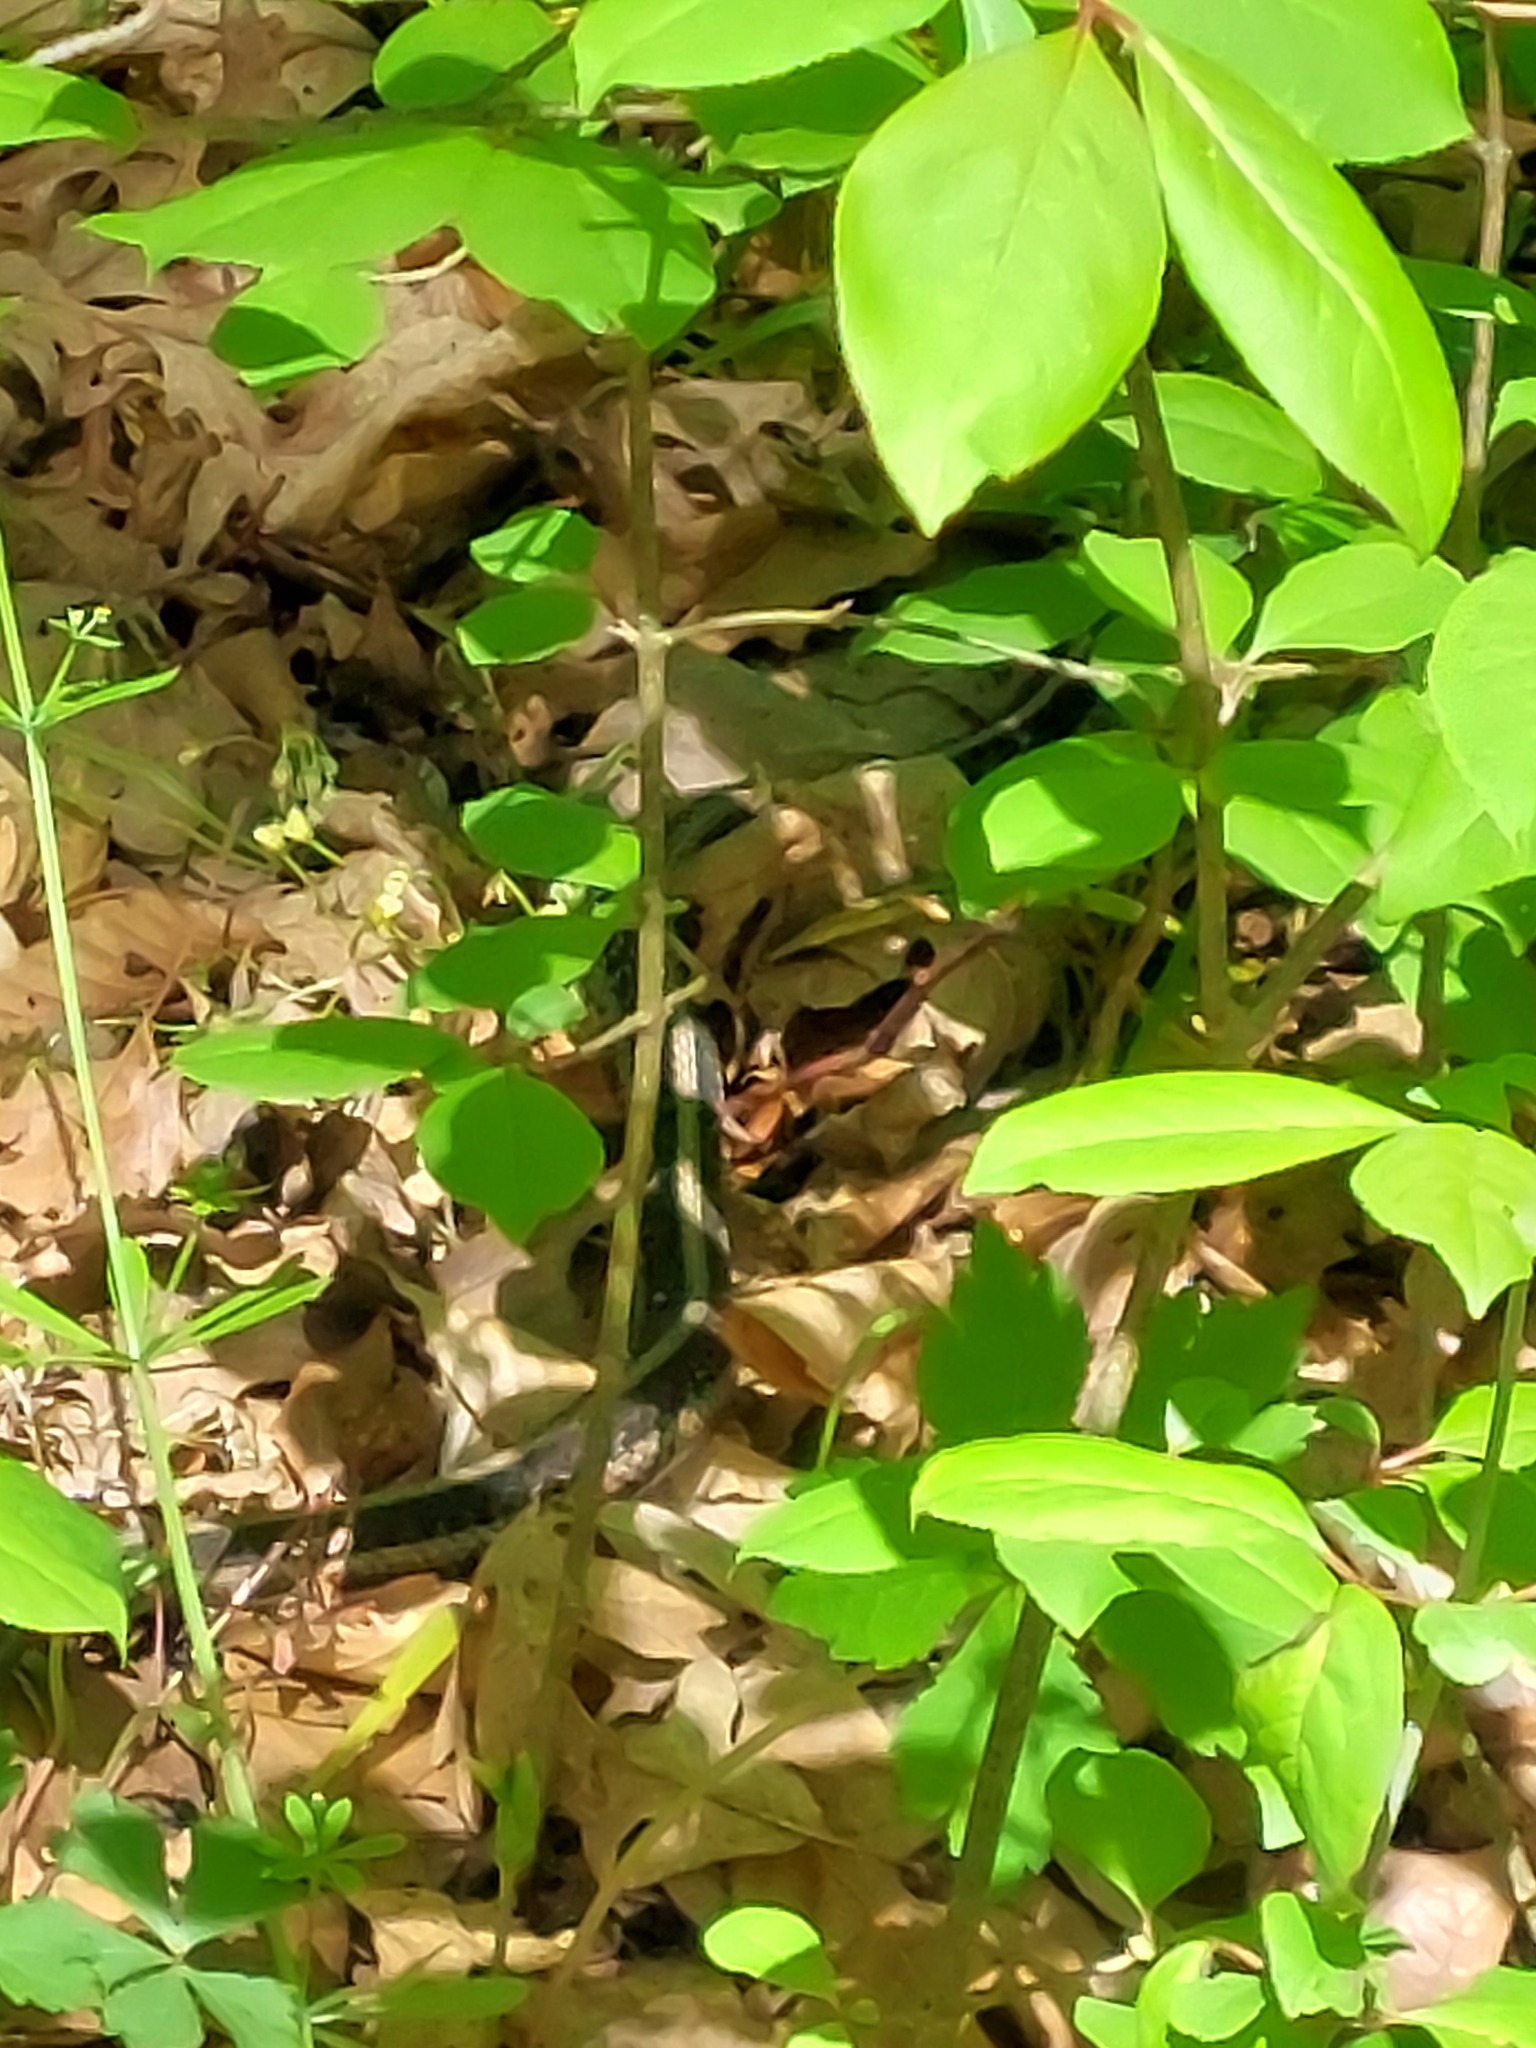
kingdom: Animalia
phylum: Chordata
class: Squamata
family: Colubridae
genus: Thamnophis
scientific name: Thamnophis sirtalis
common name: Common garter snake
